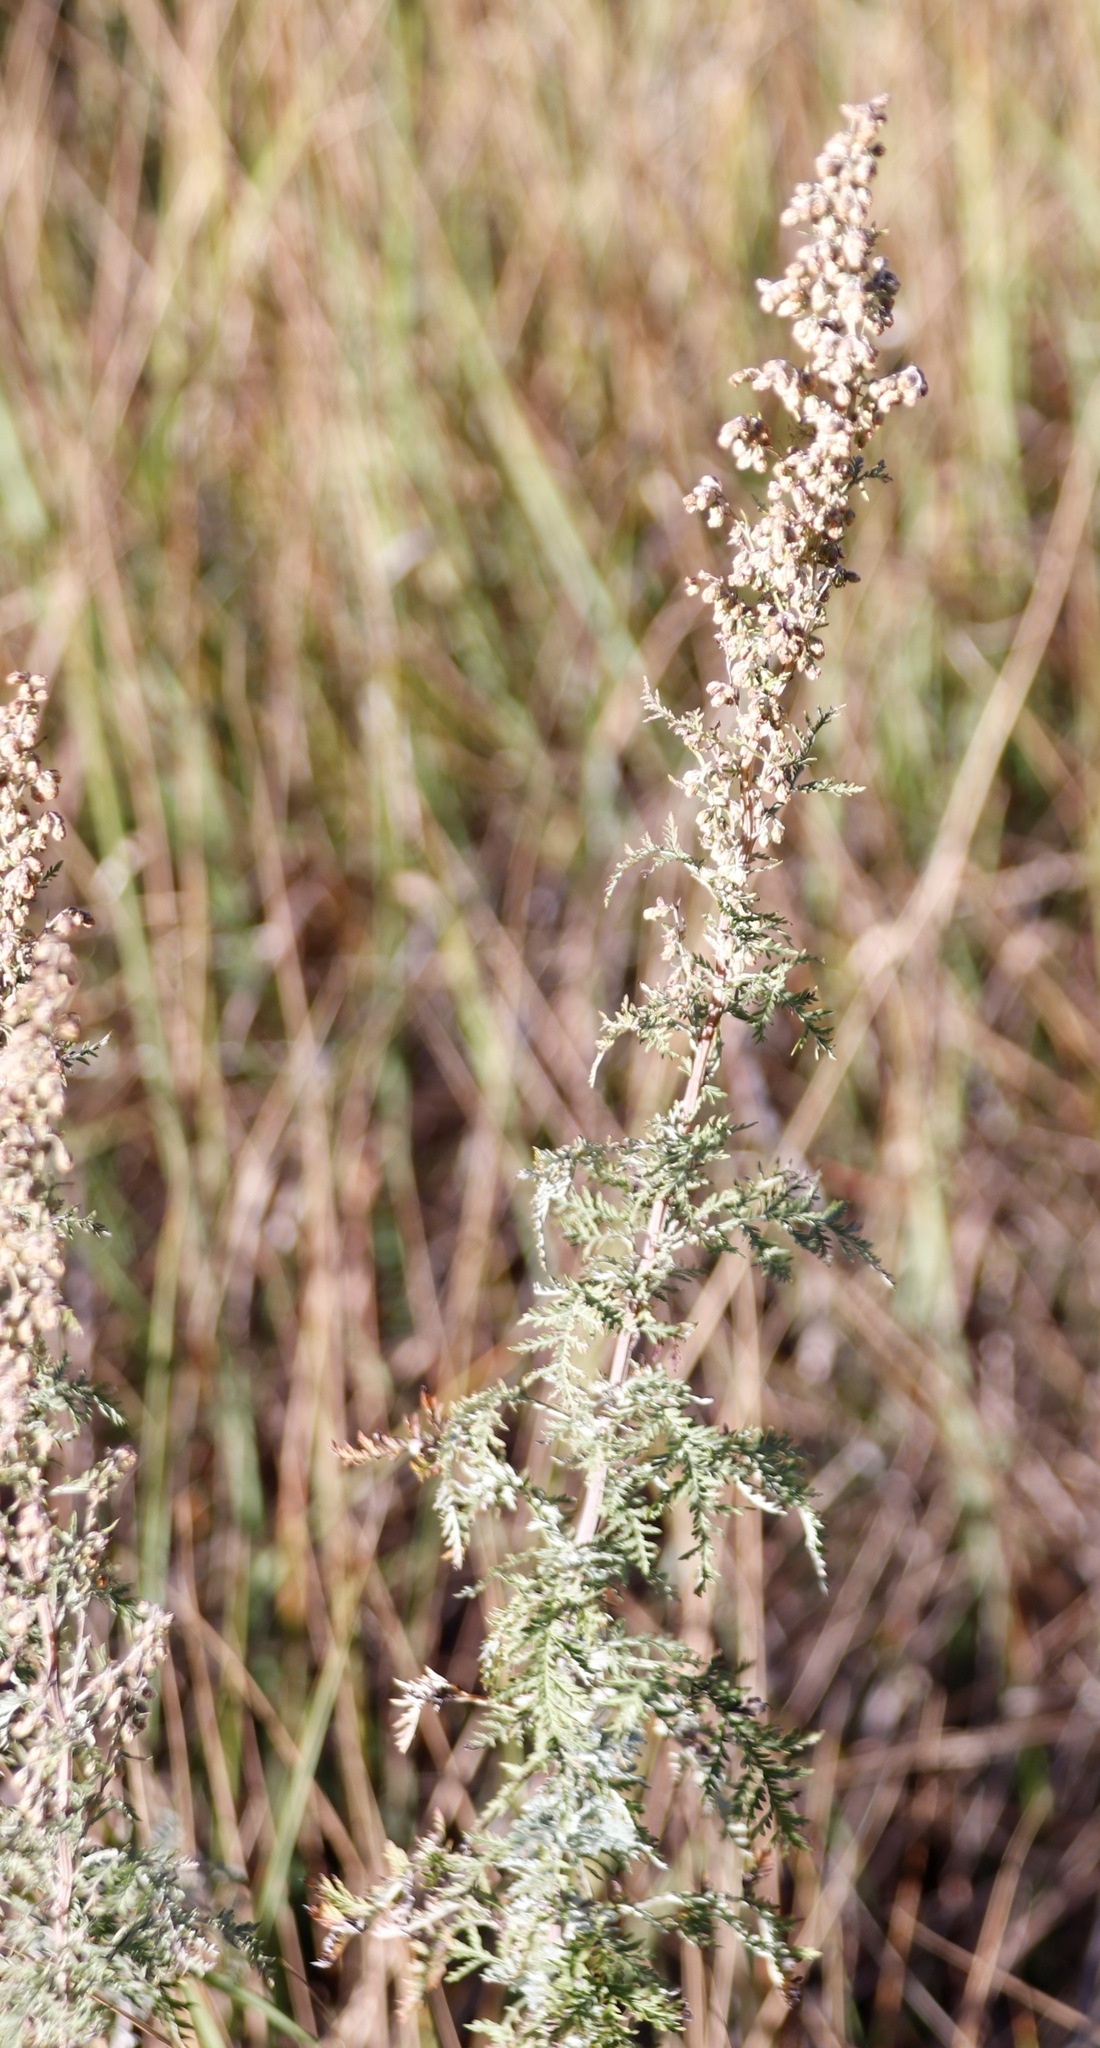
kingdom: Plantae
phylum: Tracheophyta
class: Magnoliopsida
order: Asterales
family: Asteraceae
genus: Artemisia
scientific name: Artemisia afra
